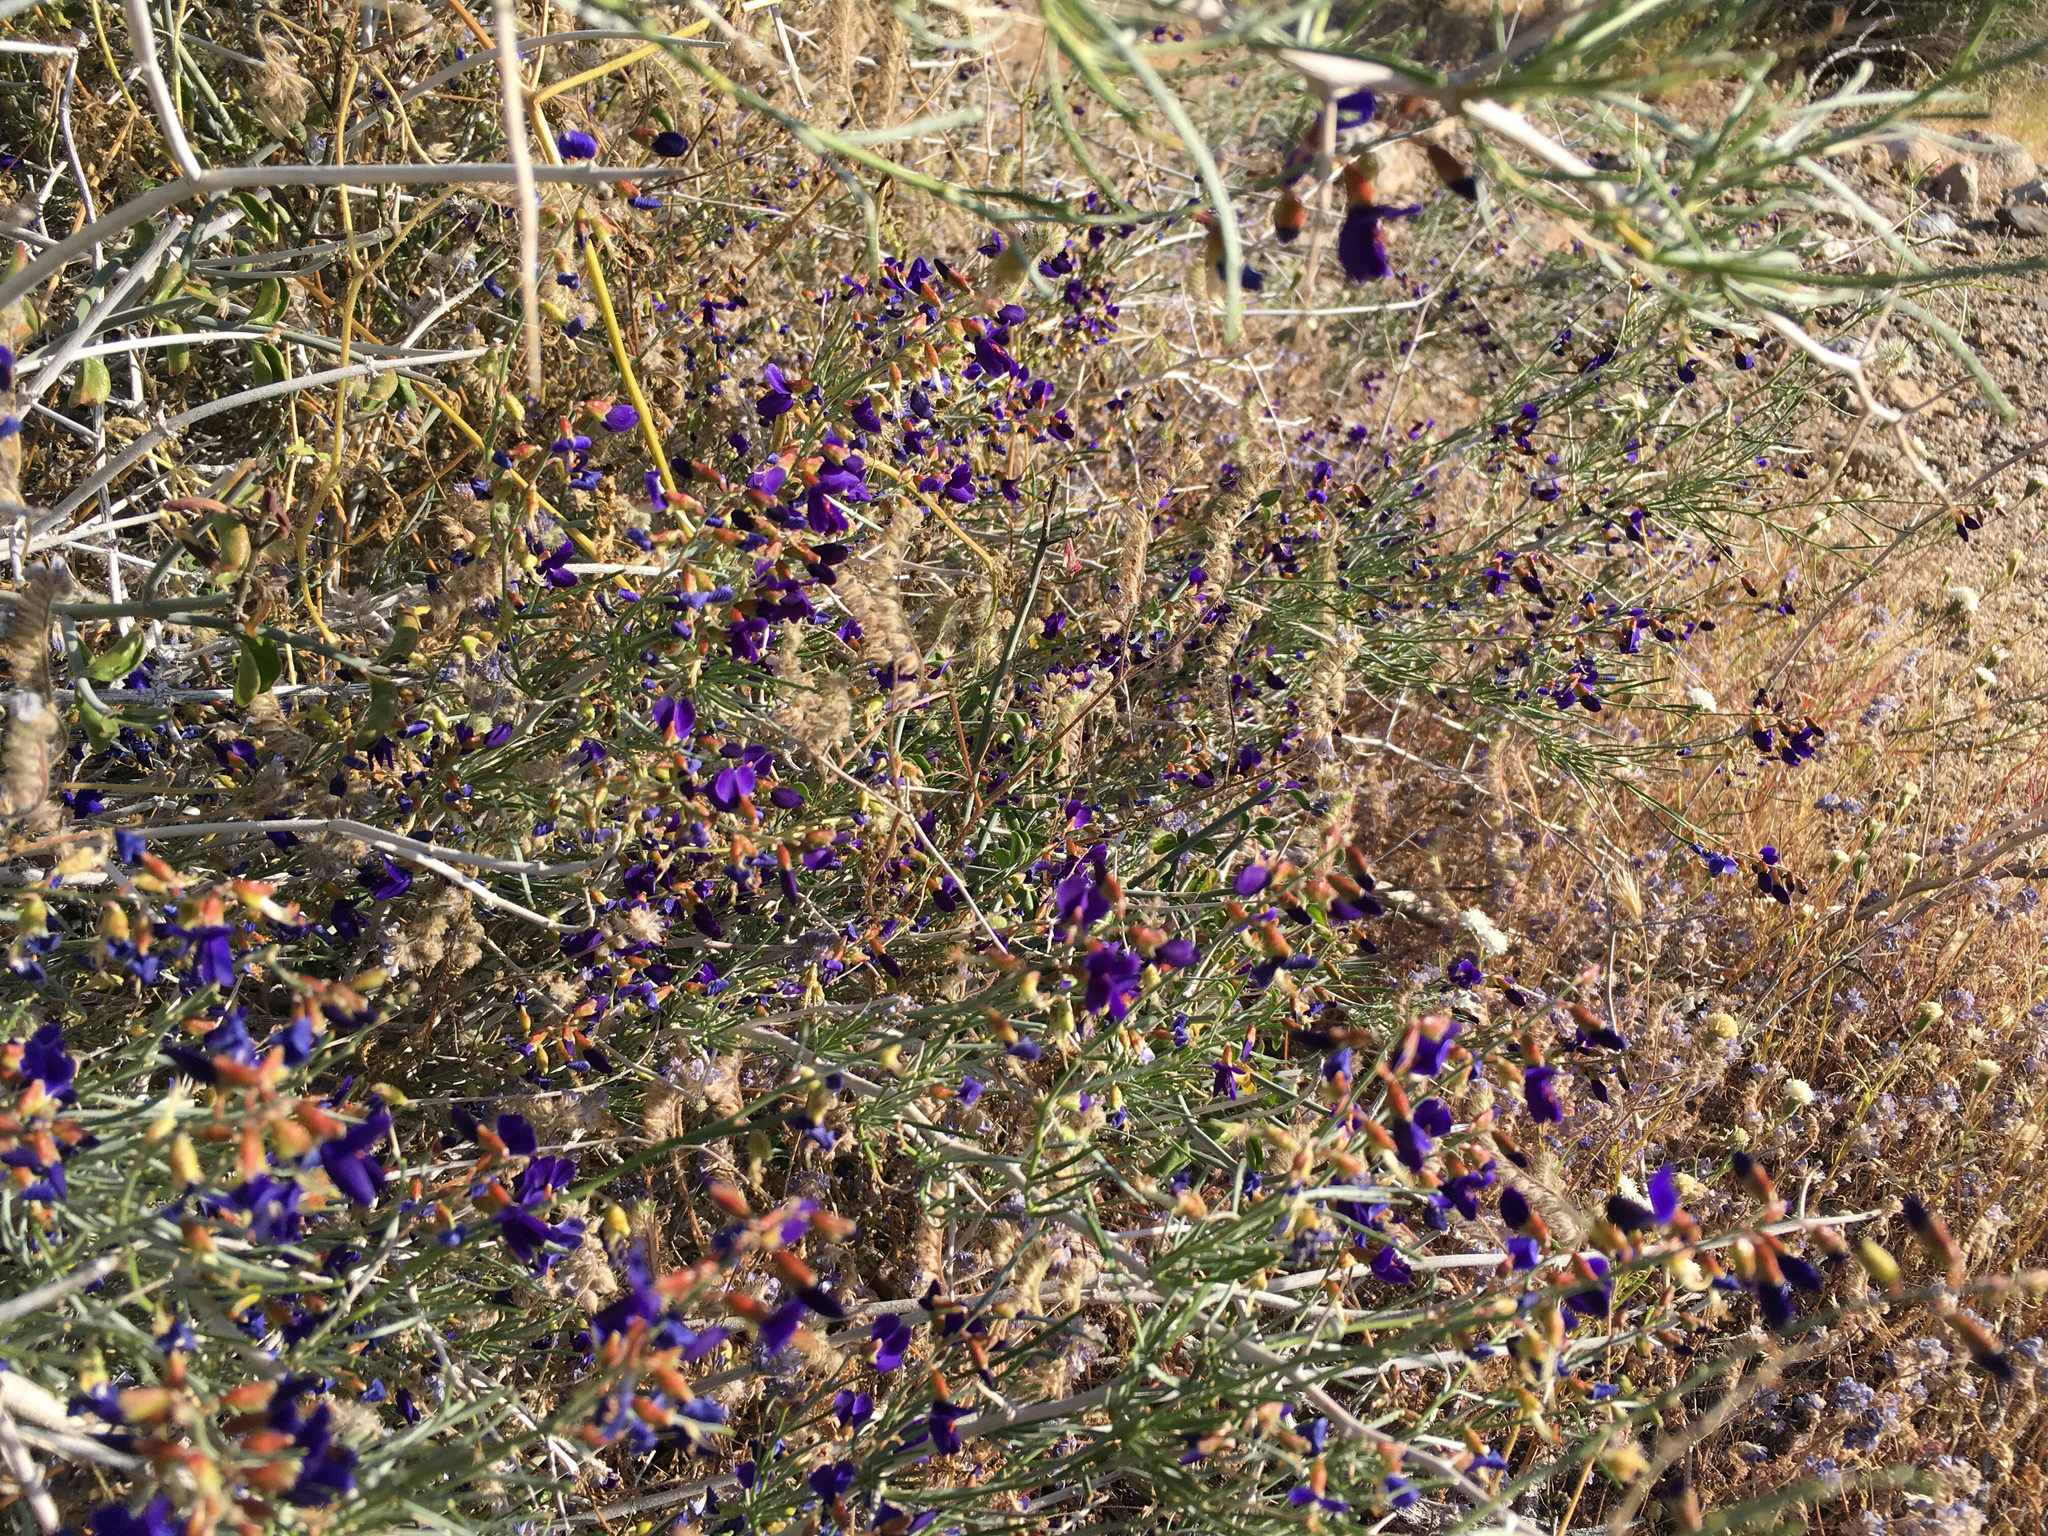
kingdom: Plantae
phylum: Tracheophyta
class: Magnoliopsida
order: Fabales
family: Fabaceae
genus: Psorothamnus
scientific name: Psorothamnus schottii
